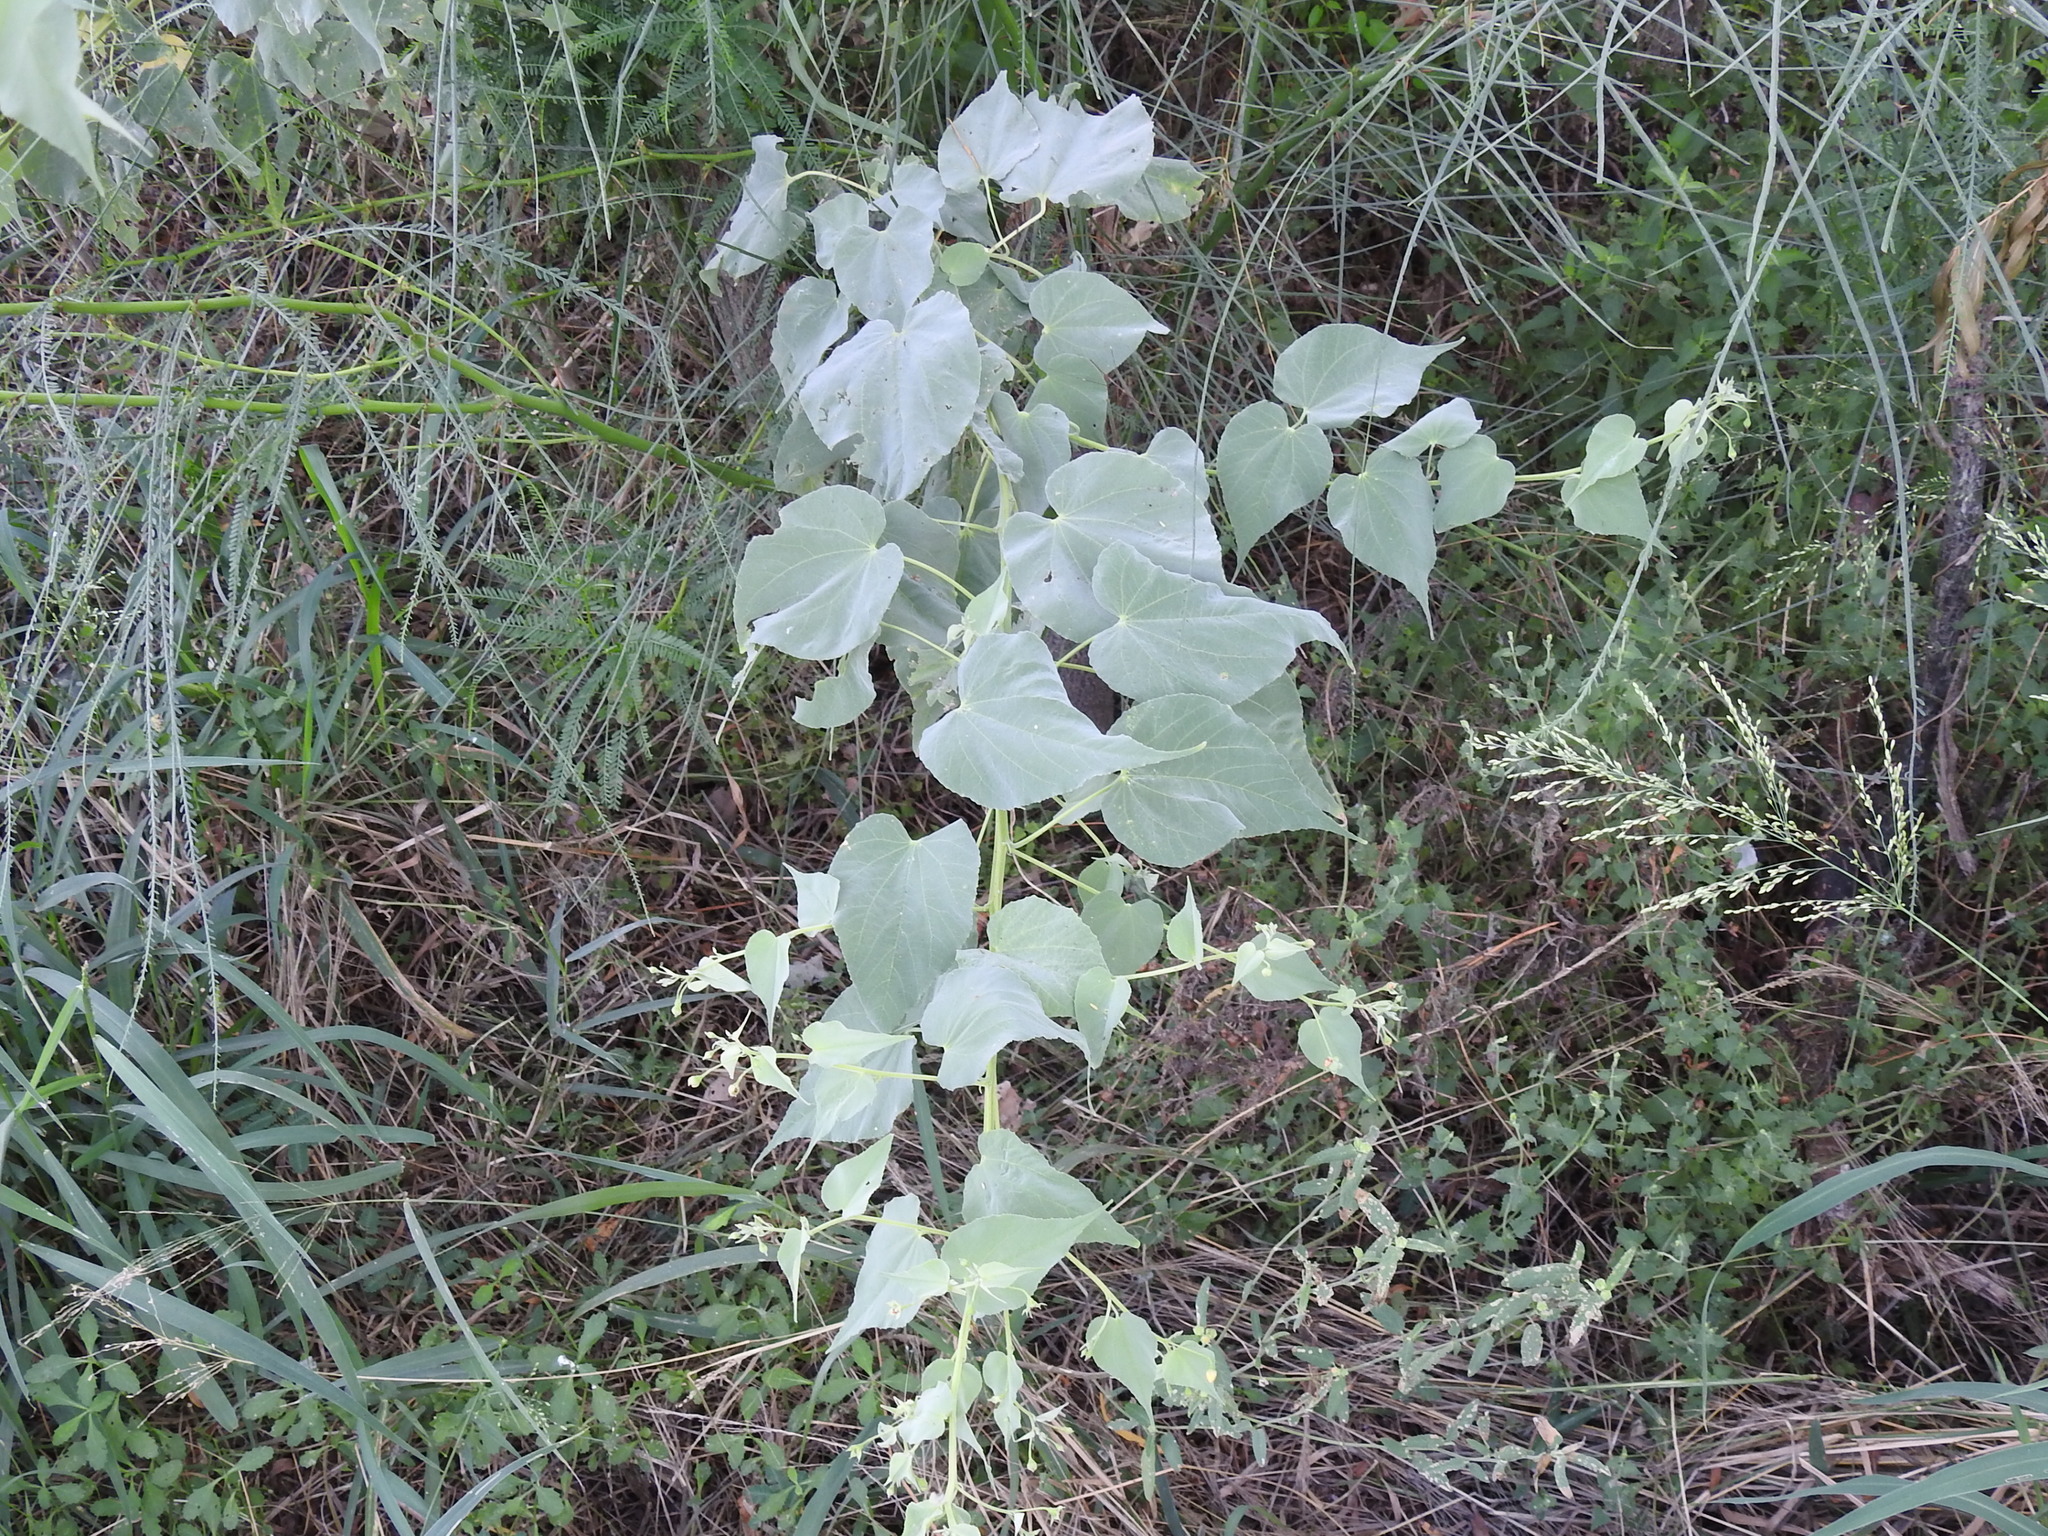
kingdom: Plantae
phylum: Tracheophyta
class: Magnoliopsida
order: Malvales
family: Malvaceae
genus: Abutilon
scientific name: Abutilon trisulcatum
